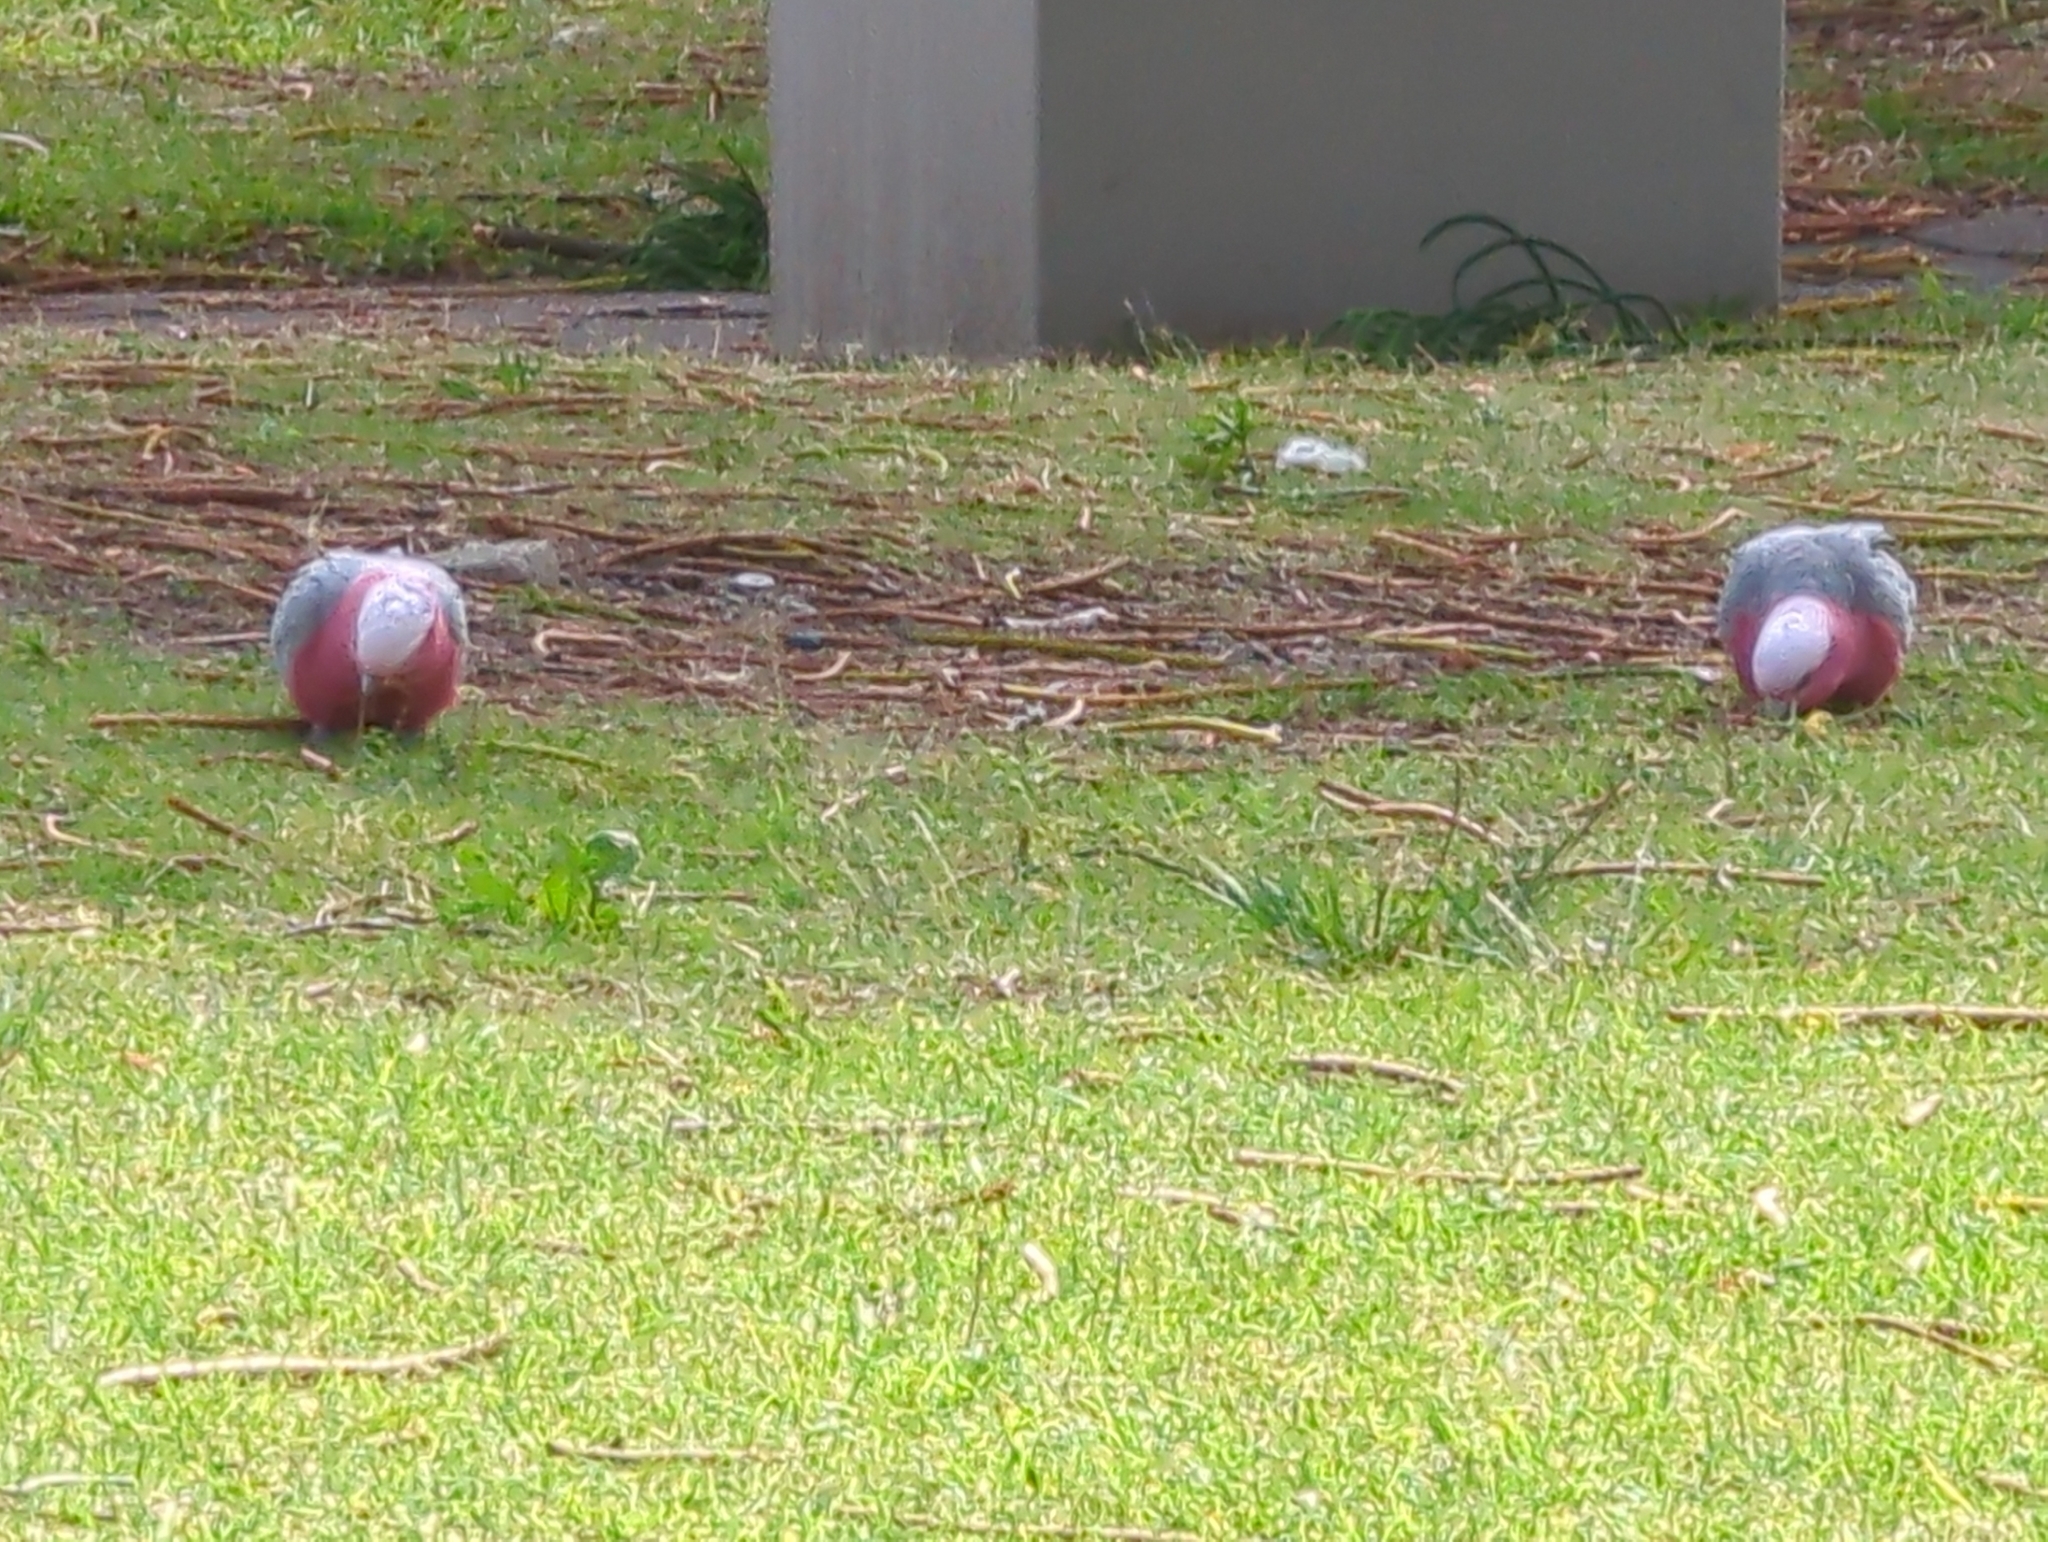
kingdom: Animalia
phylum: Chordata
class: Aves
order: Psittaciformes
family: Psittacidae
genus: Eolophus
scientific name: Eolophus roseicapilla
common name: Galah
